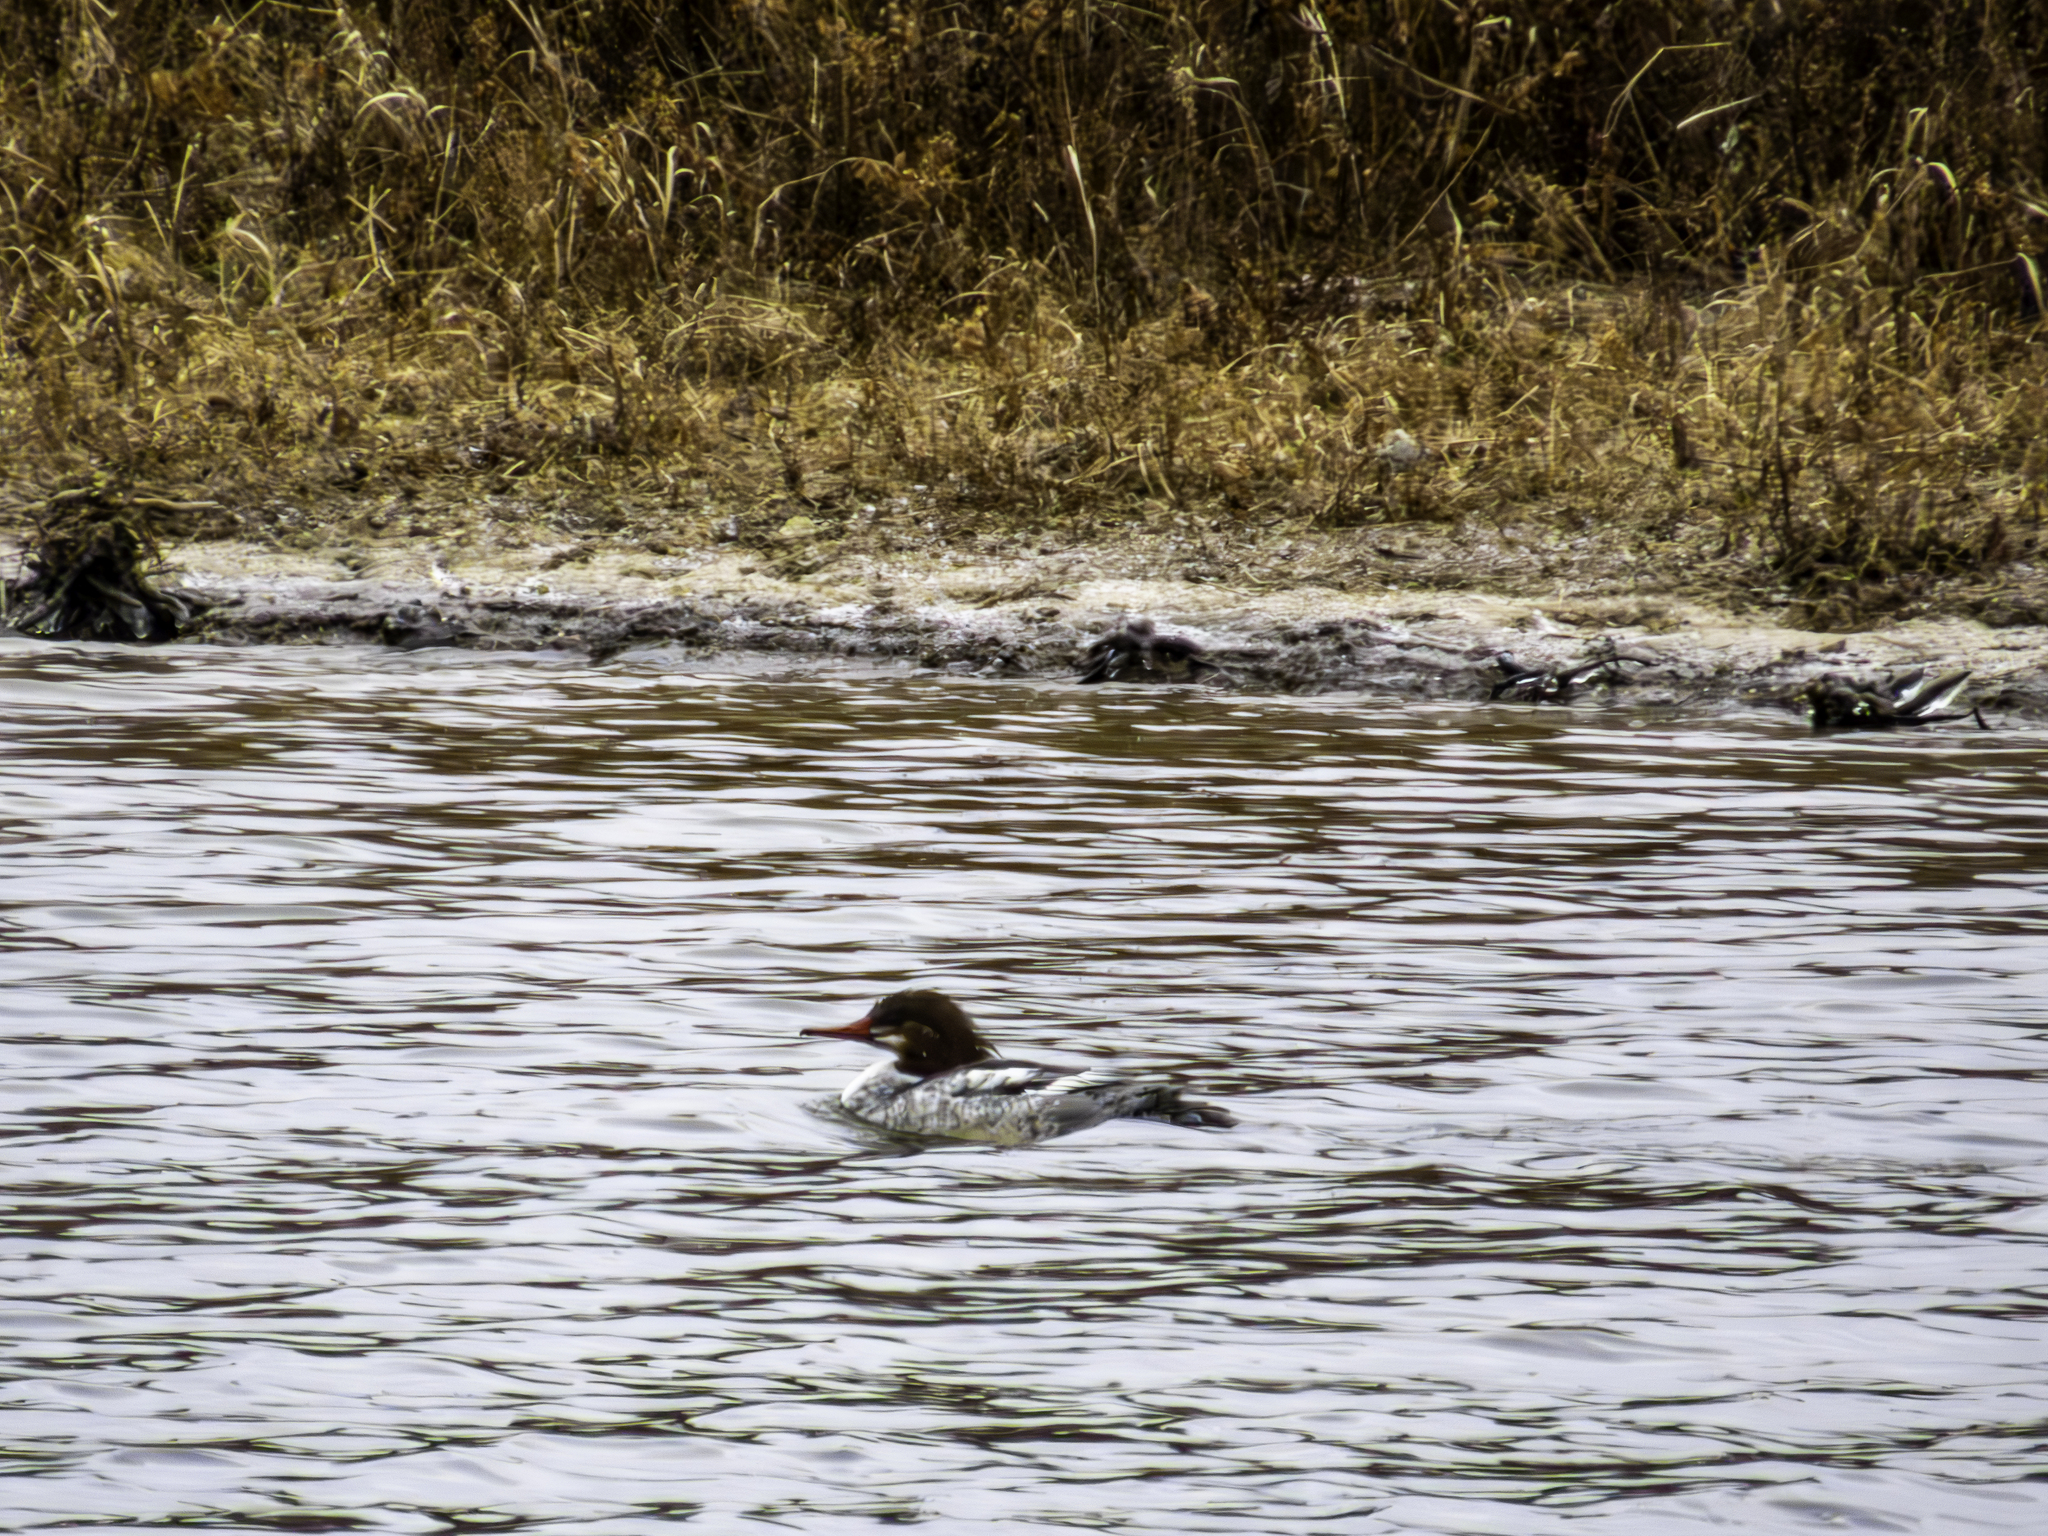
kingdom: Animalia
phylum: Chordata
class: Aves
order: Anseriformes
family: Anatidae
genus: Mergus
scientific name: Mergus merganser
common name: Common merganser
